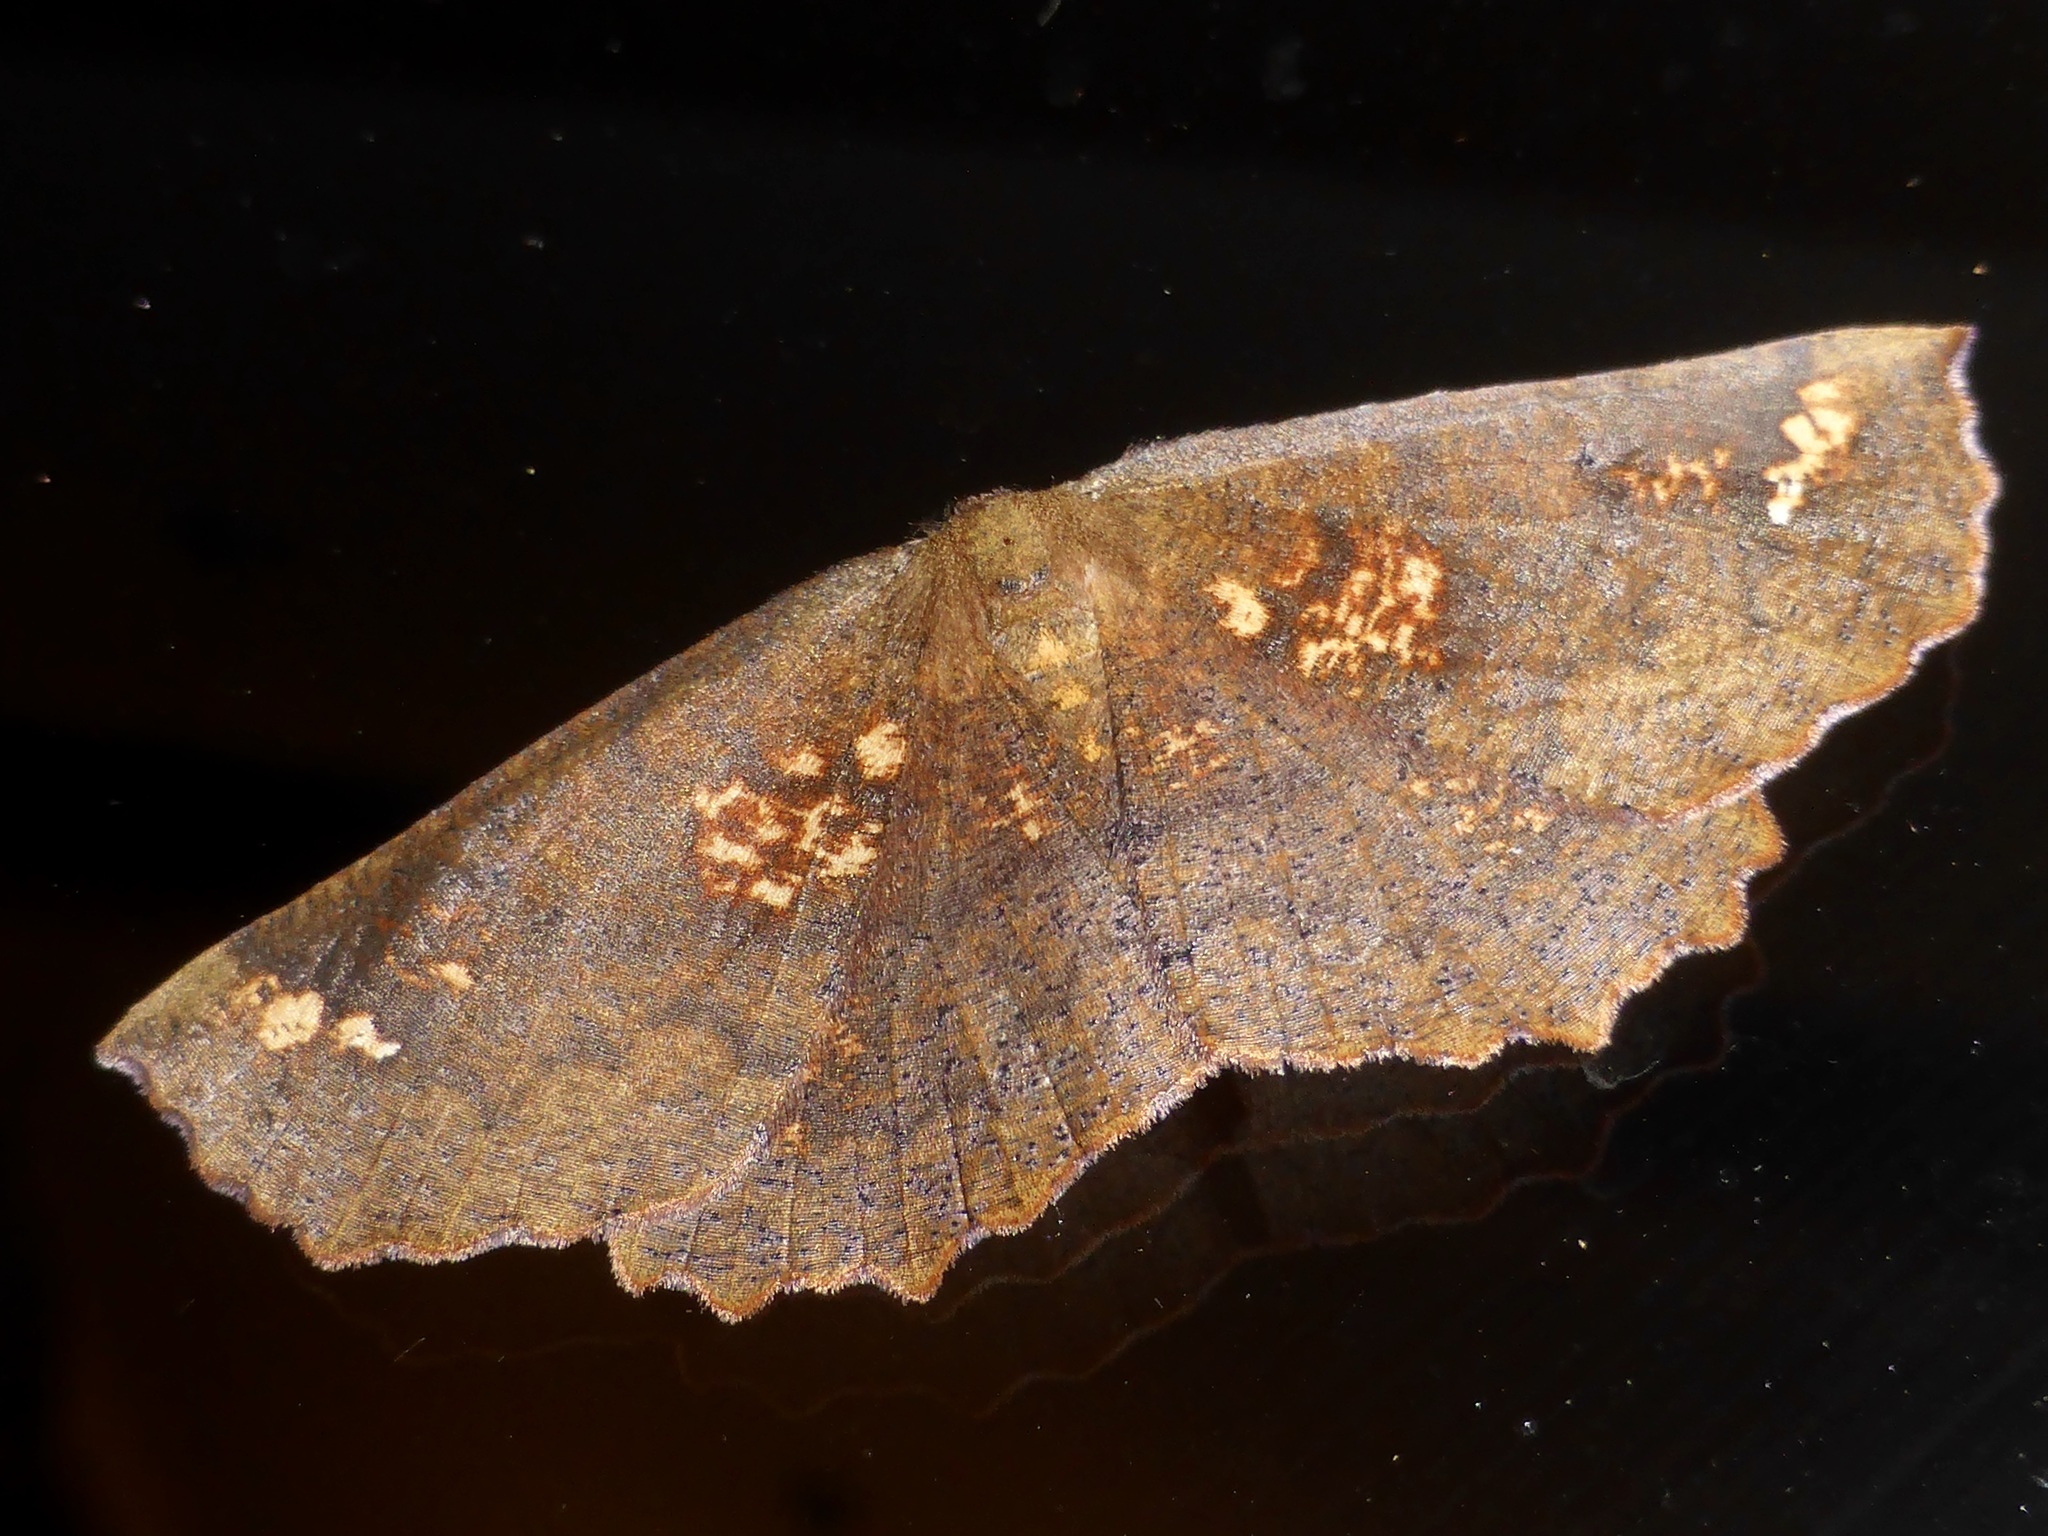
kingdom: Animalia
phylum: Arthropoda
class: Insecta
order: Lepidoptera
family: Geometridae
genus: Xyridacma
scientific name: Xyridacma ustaria
